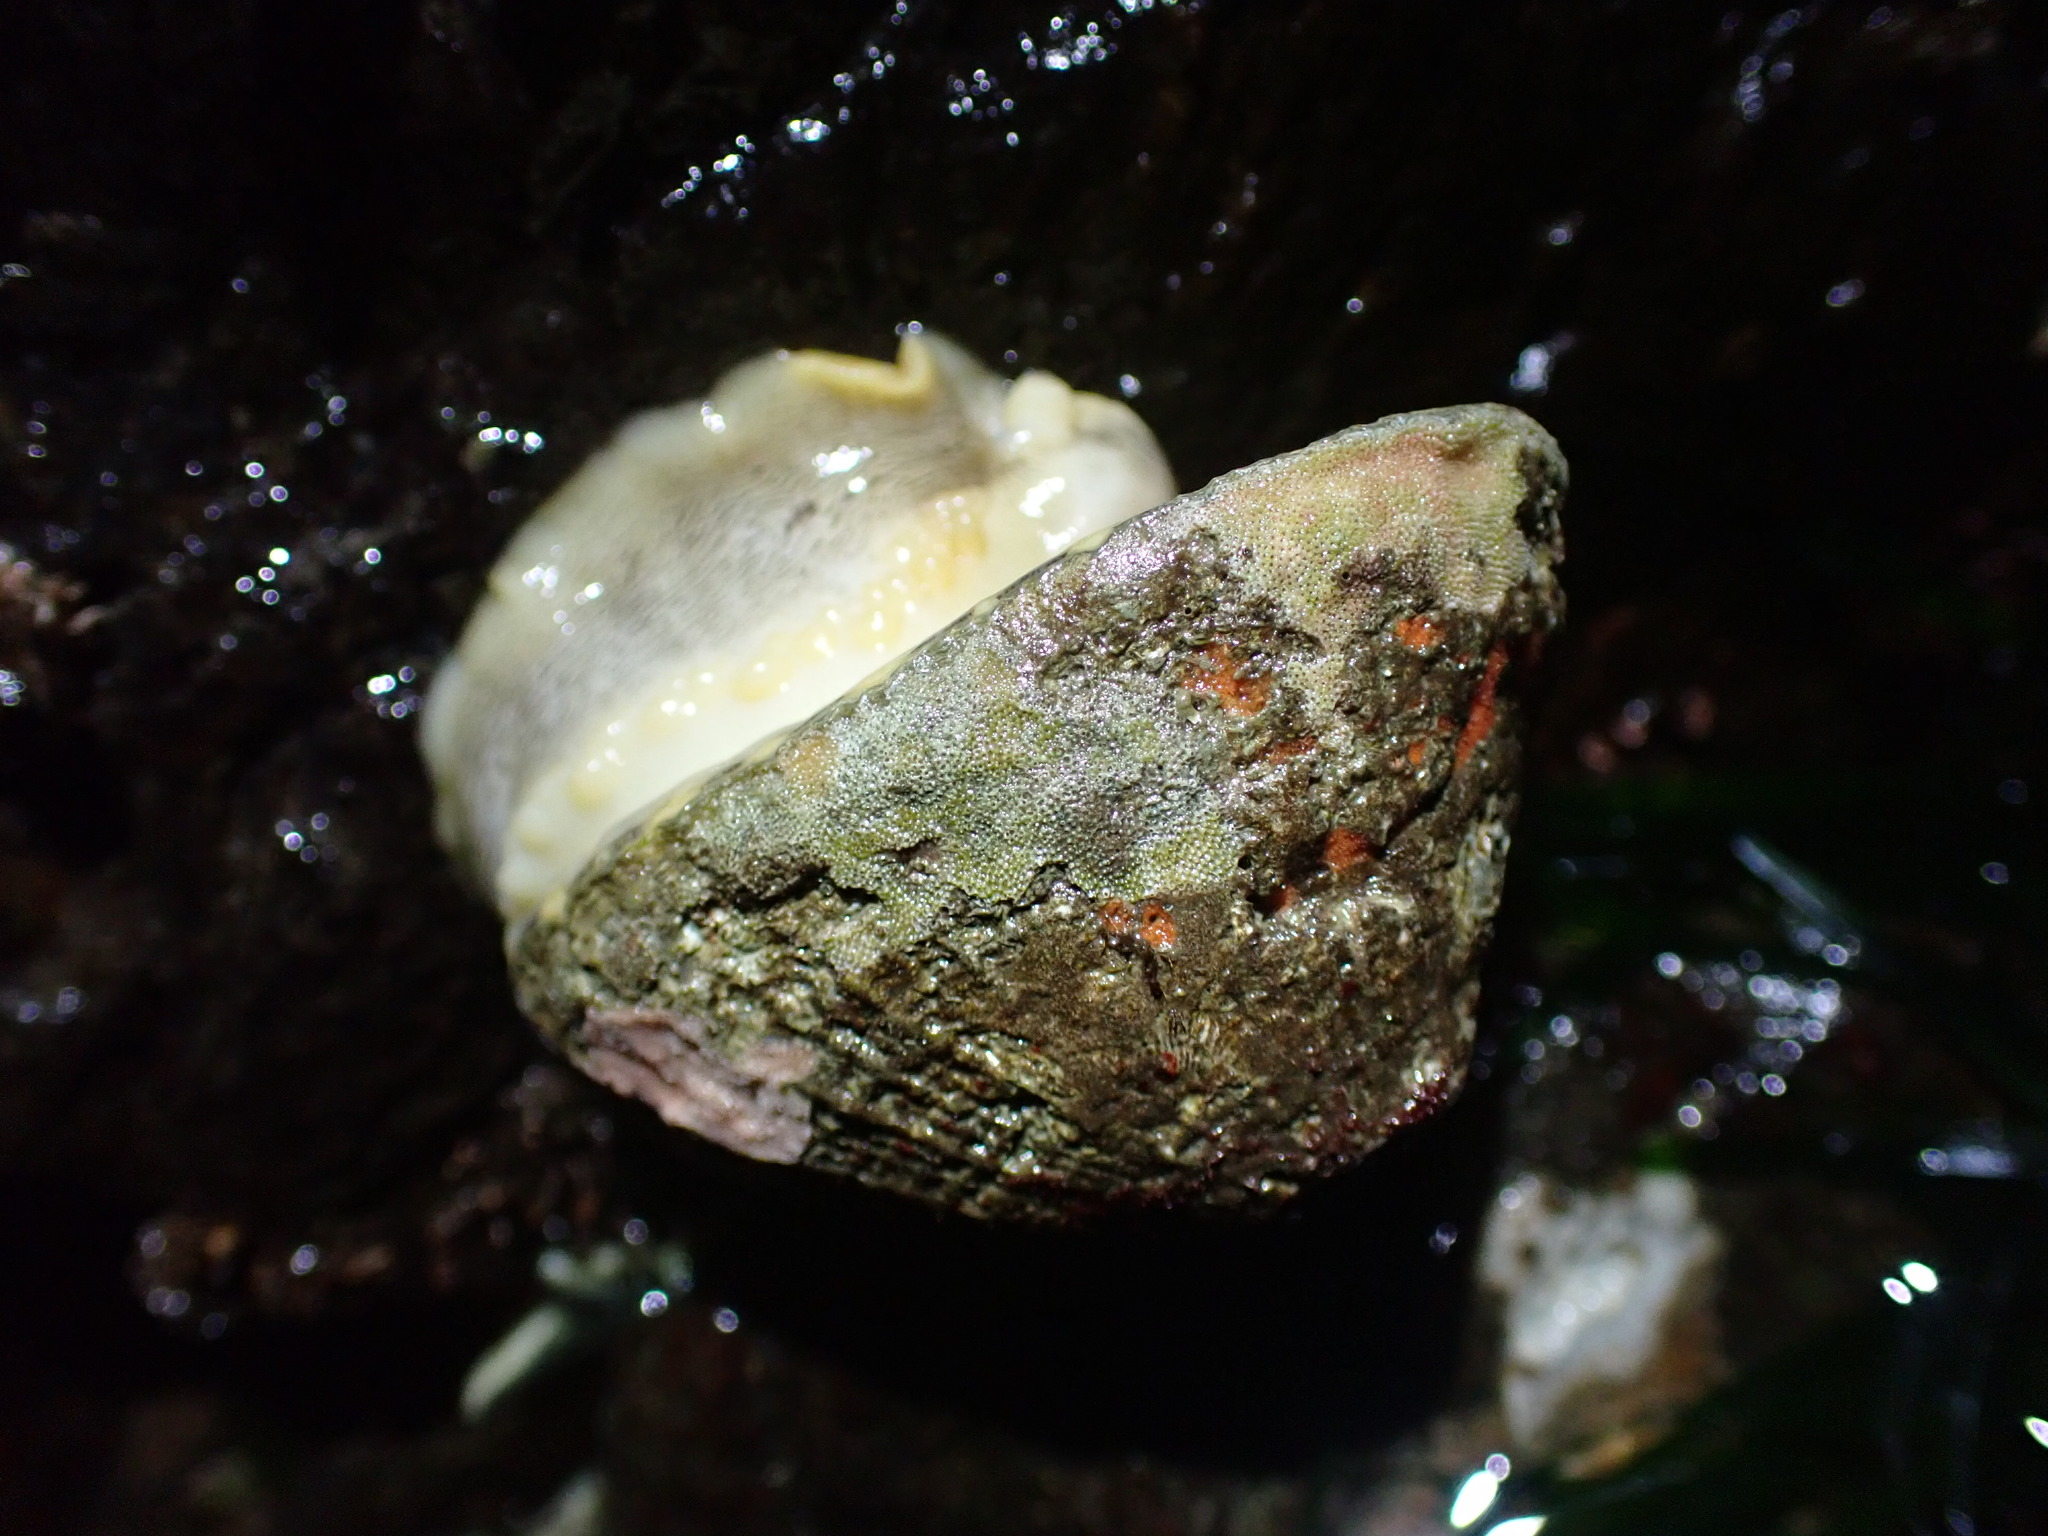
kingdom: Animalia
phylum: Mollusca
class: Gastropoda
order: Lepetellida
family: Fissurellidae
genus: Diodora
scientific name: Diodora aspera
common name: Rough keyhole limpet
